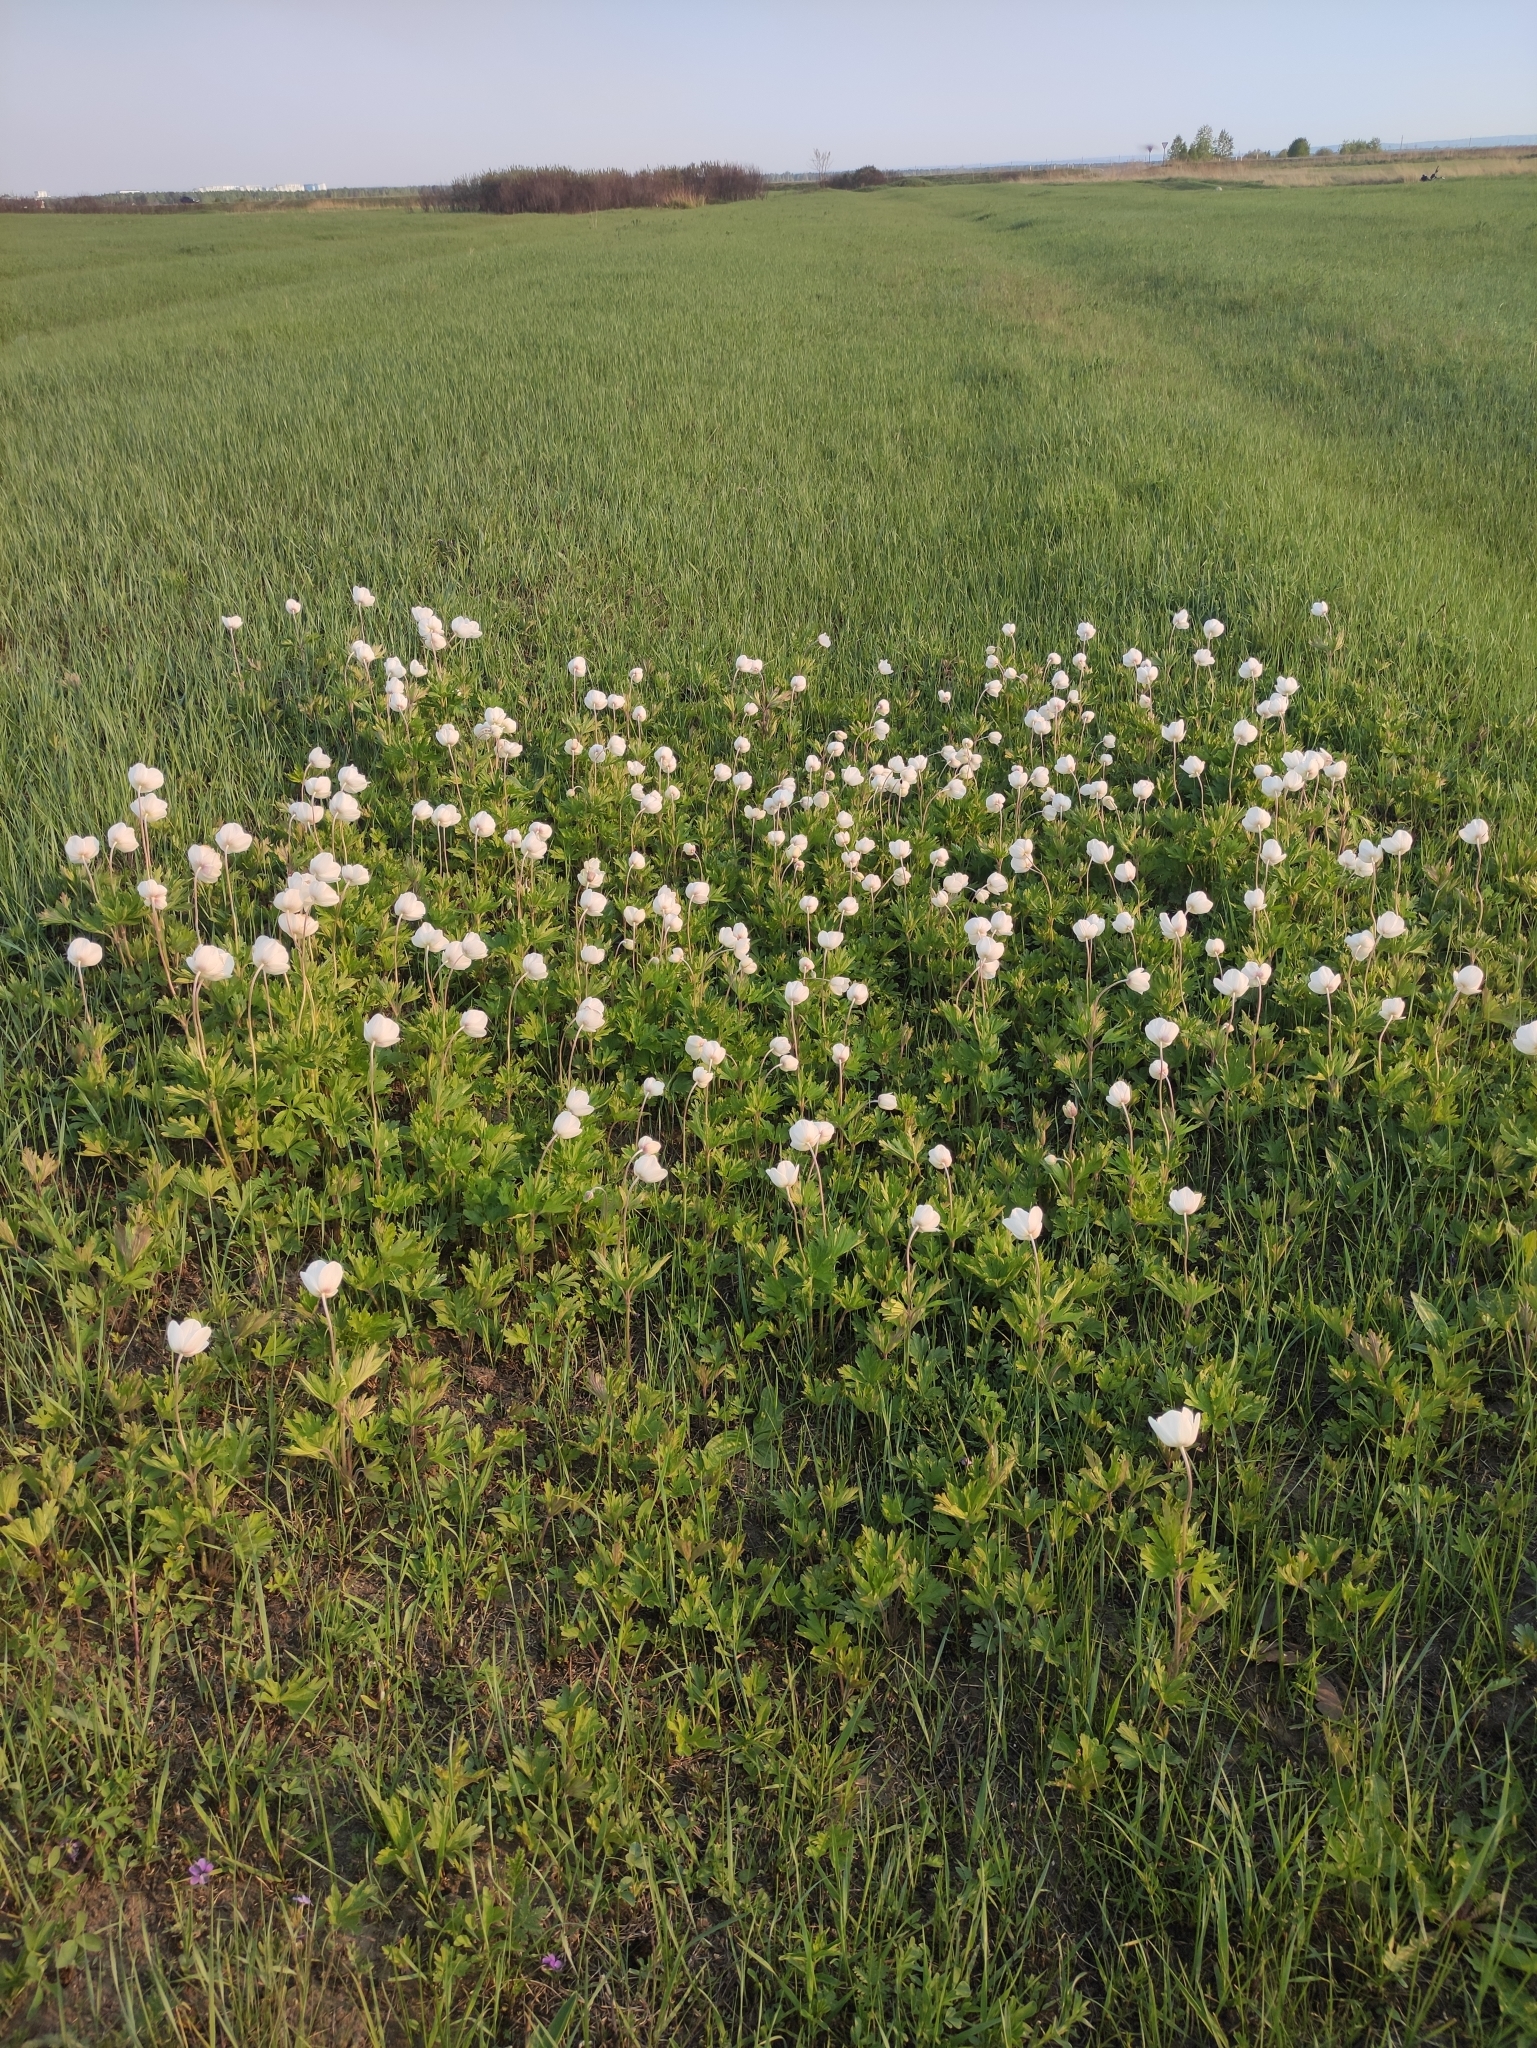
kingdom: Plantae
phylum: Tracheophyta
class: Magnoliopsida
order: Ranunculales
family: Ranunculaceae
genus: Anemone
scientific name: Anemone sylvestris
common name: Snowdrop anemone
